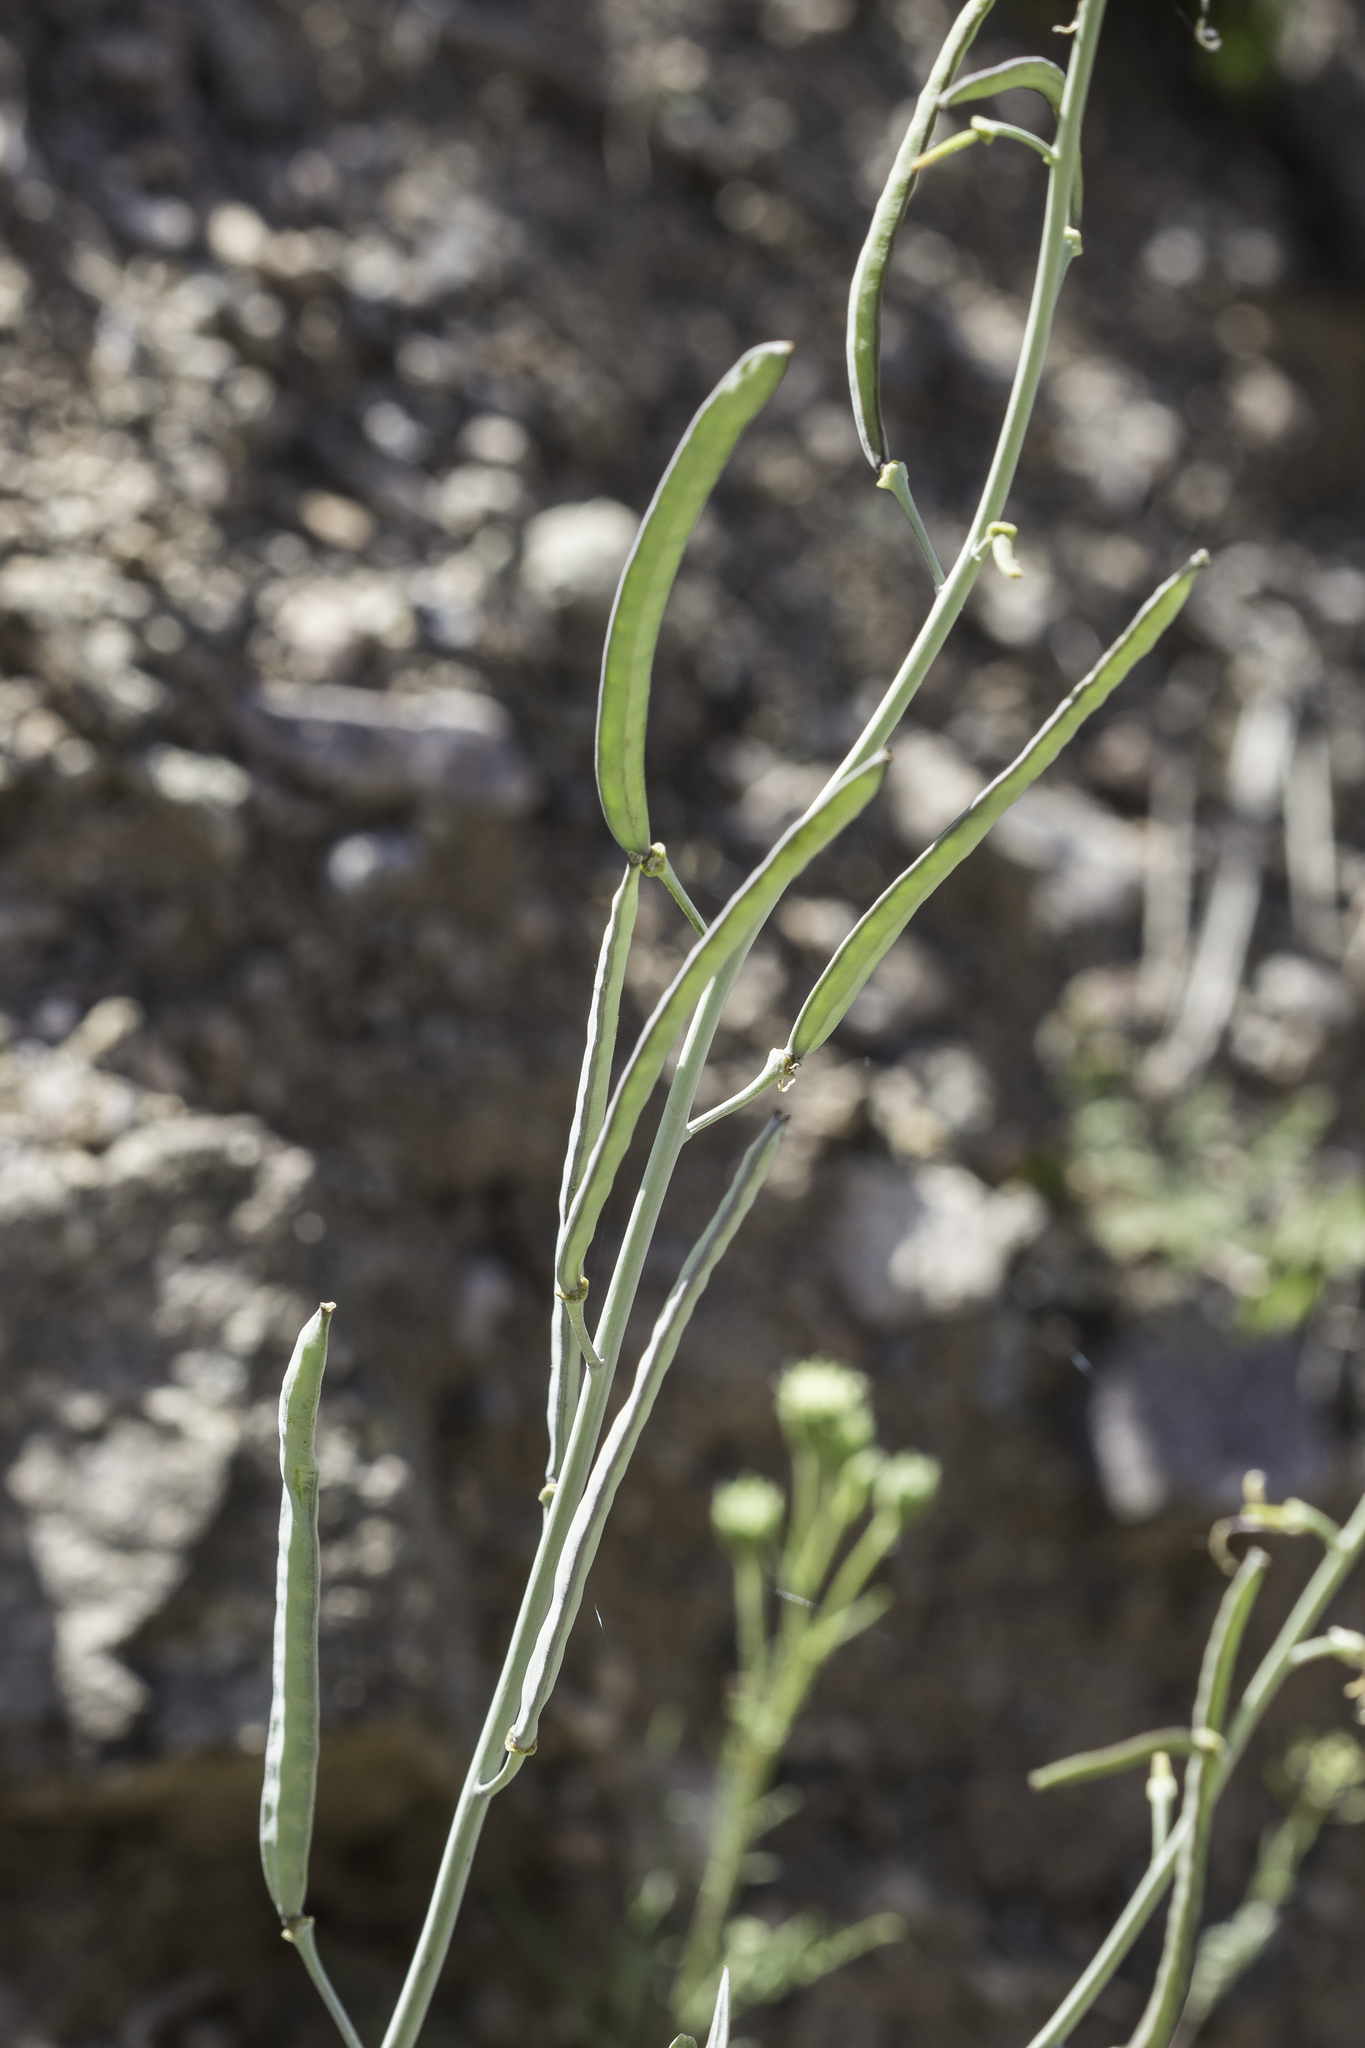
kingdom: Plantae
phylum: Tracheophyta
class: Magnoliopsida
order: Brassicales
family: Brassicaceae
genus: Streptanthus
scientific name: Streptanthus carinatus
